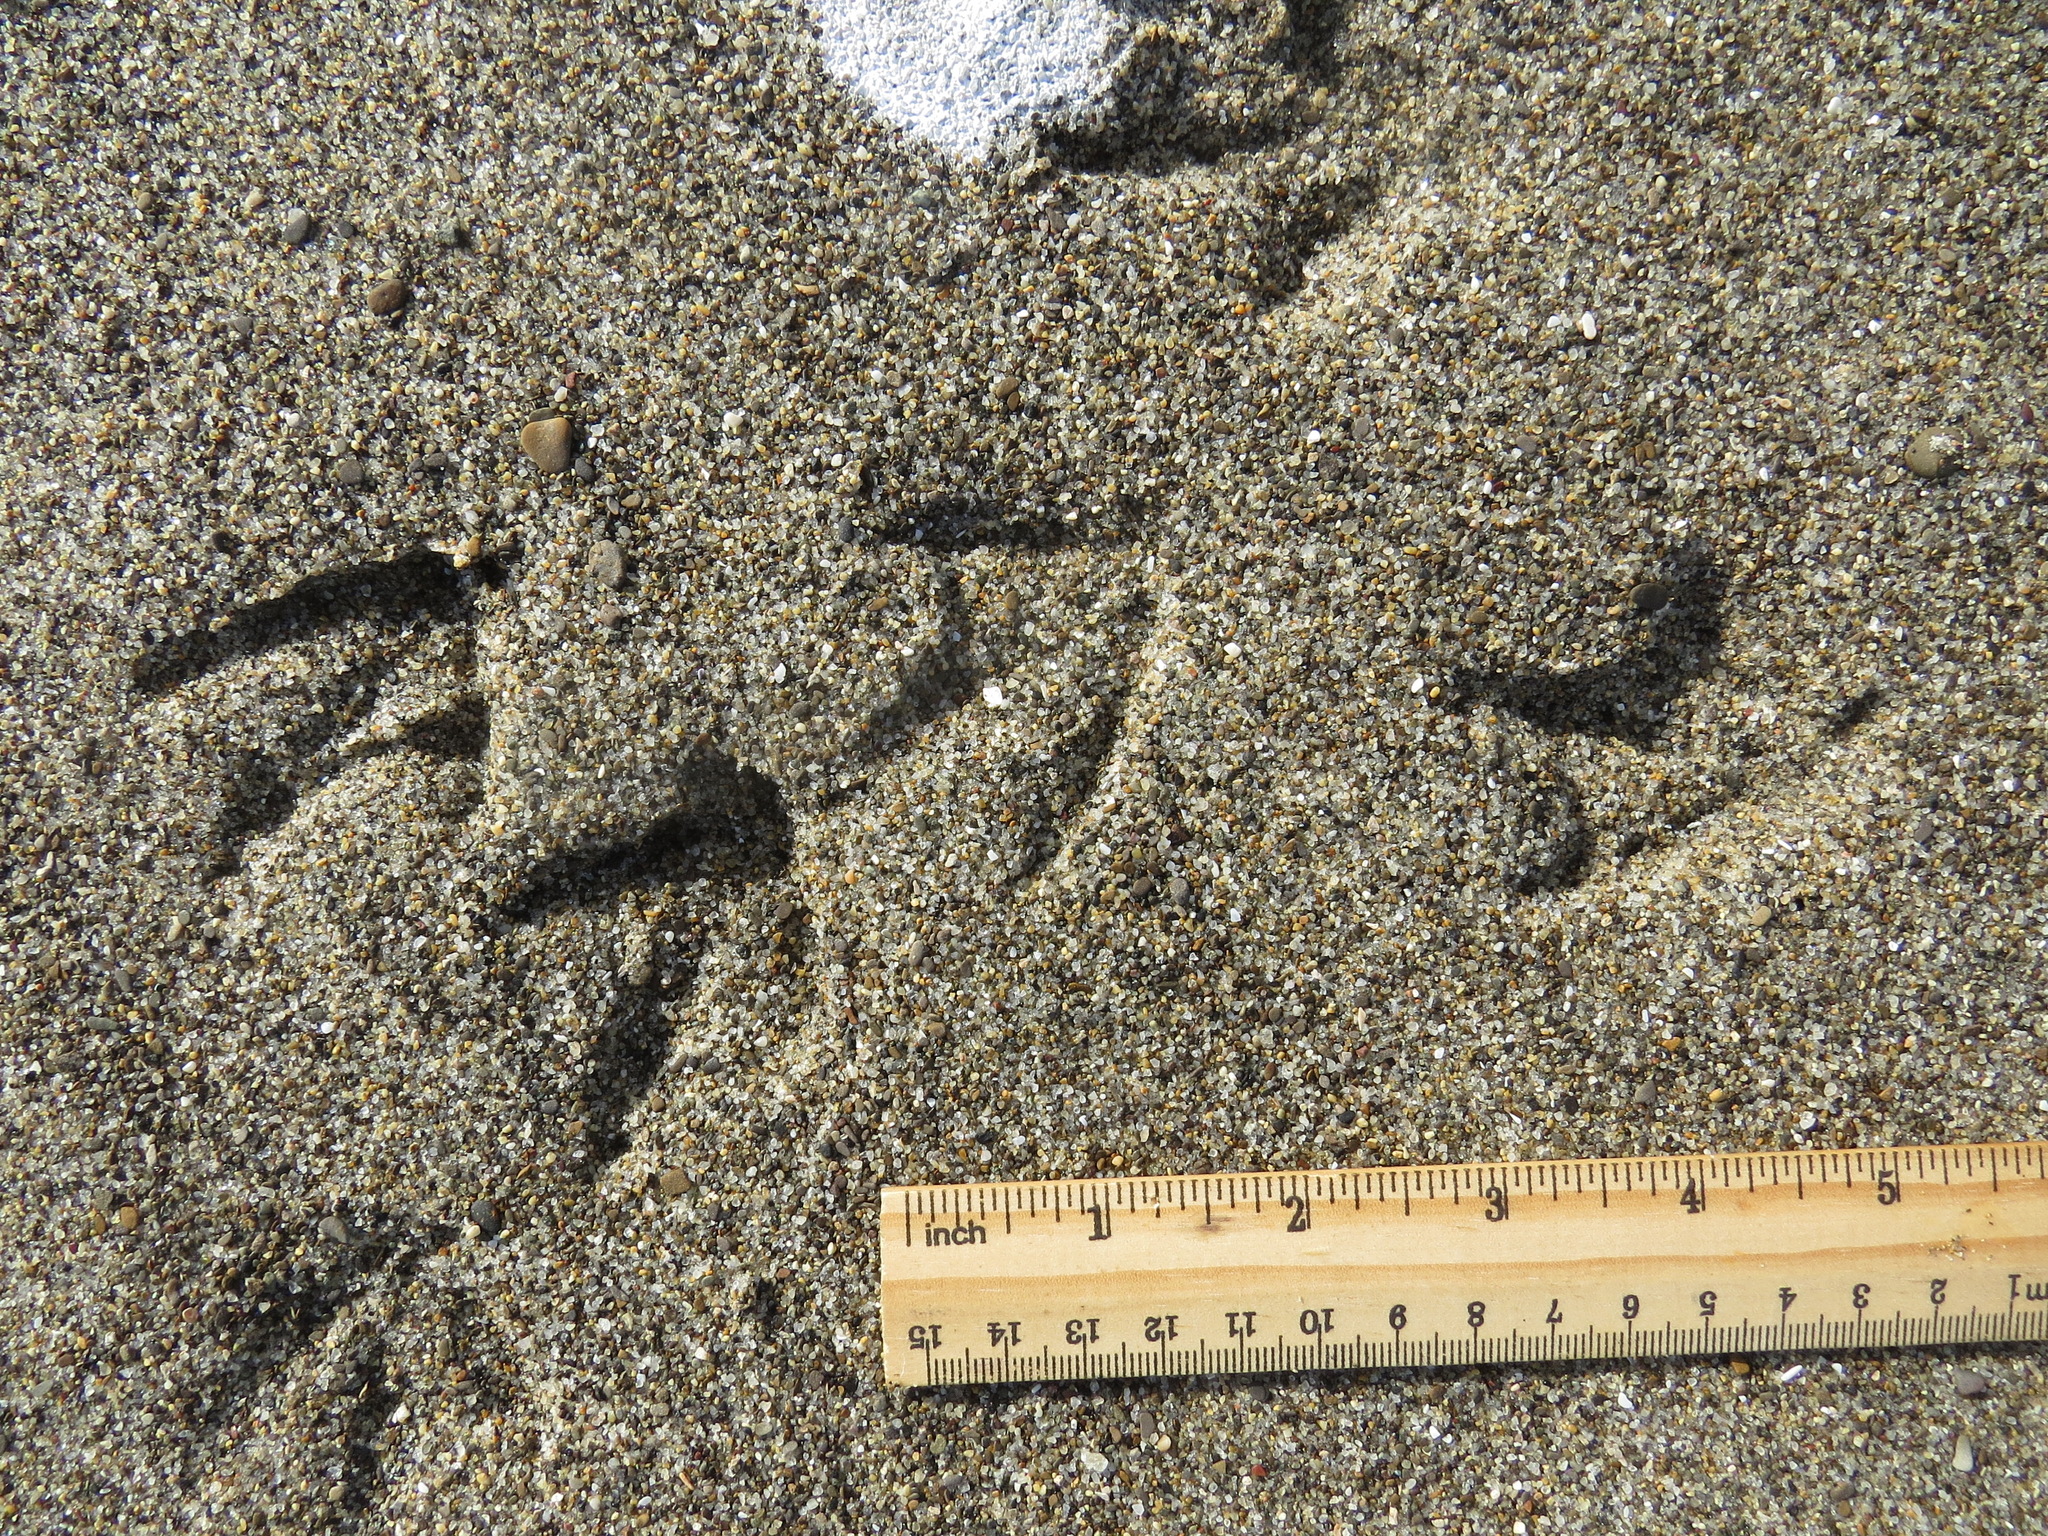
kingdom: Animalia
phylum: Chordata
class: Aves
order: Charadriiformes
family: Laridae
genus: Hydroprogne
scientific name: Hydroprogne caspia
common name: Caspian tern
